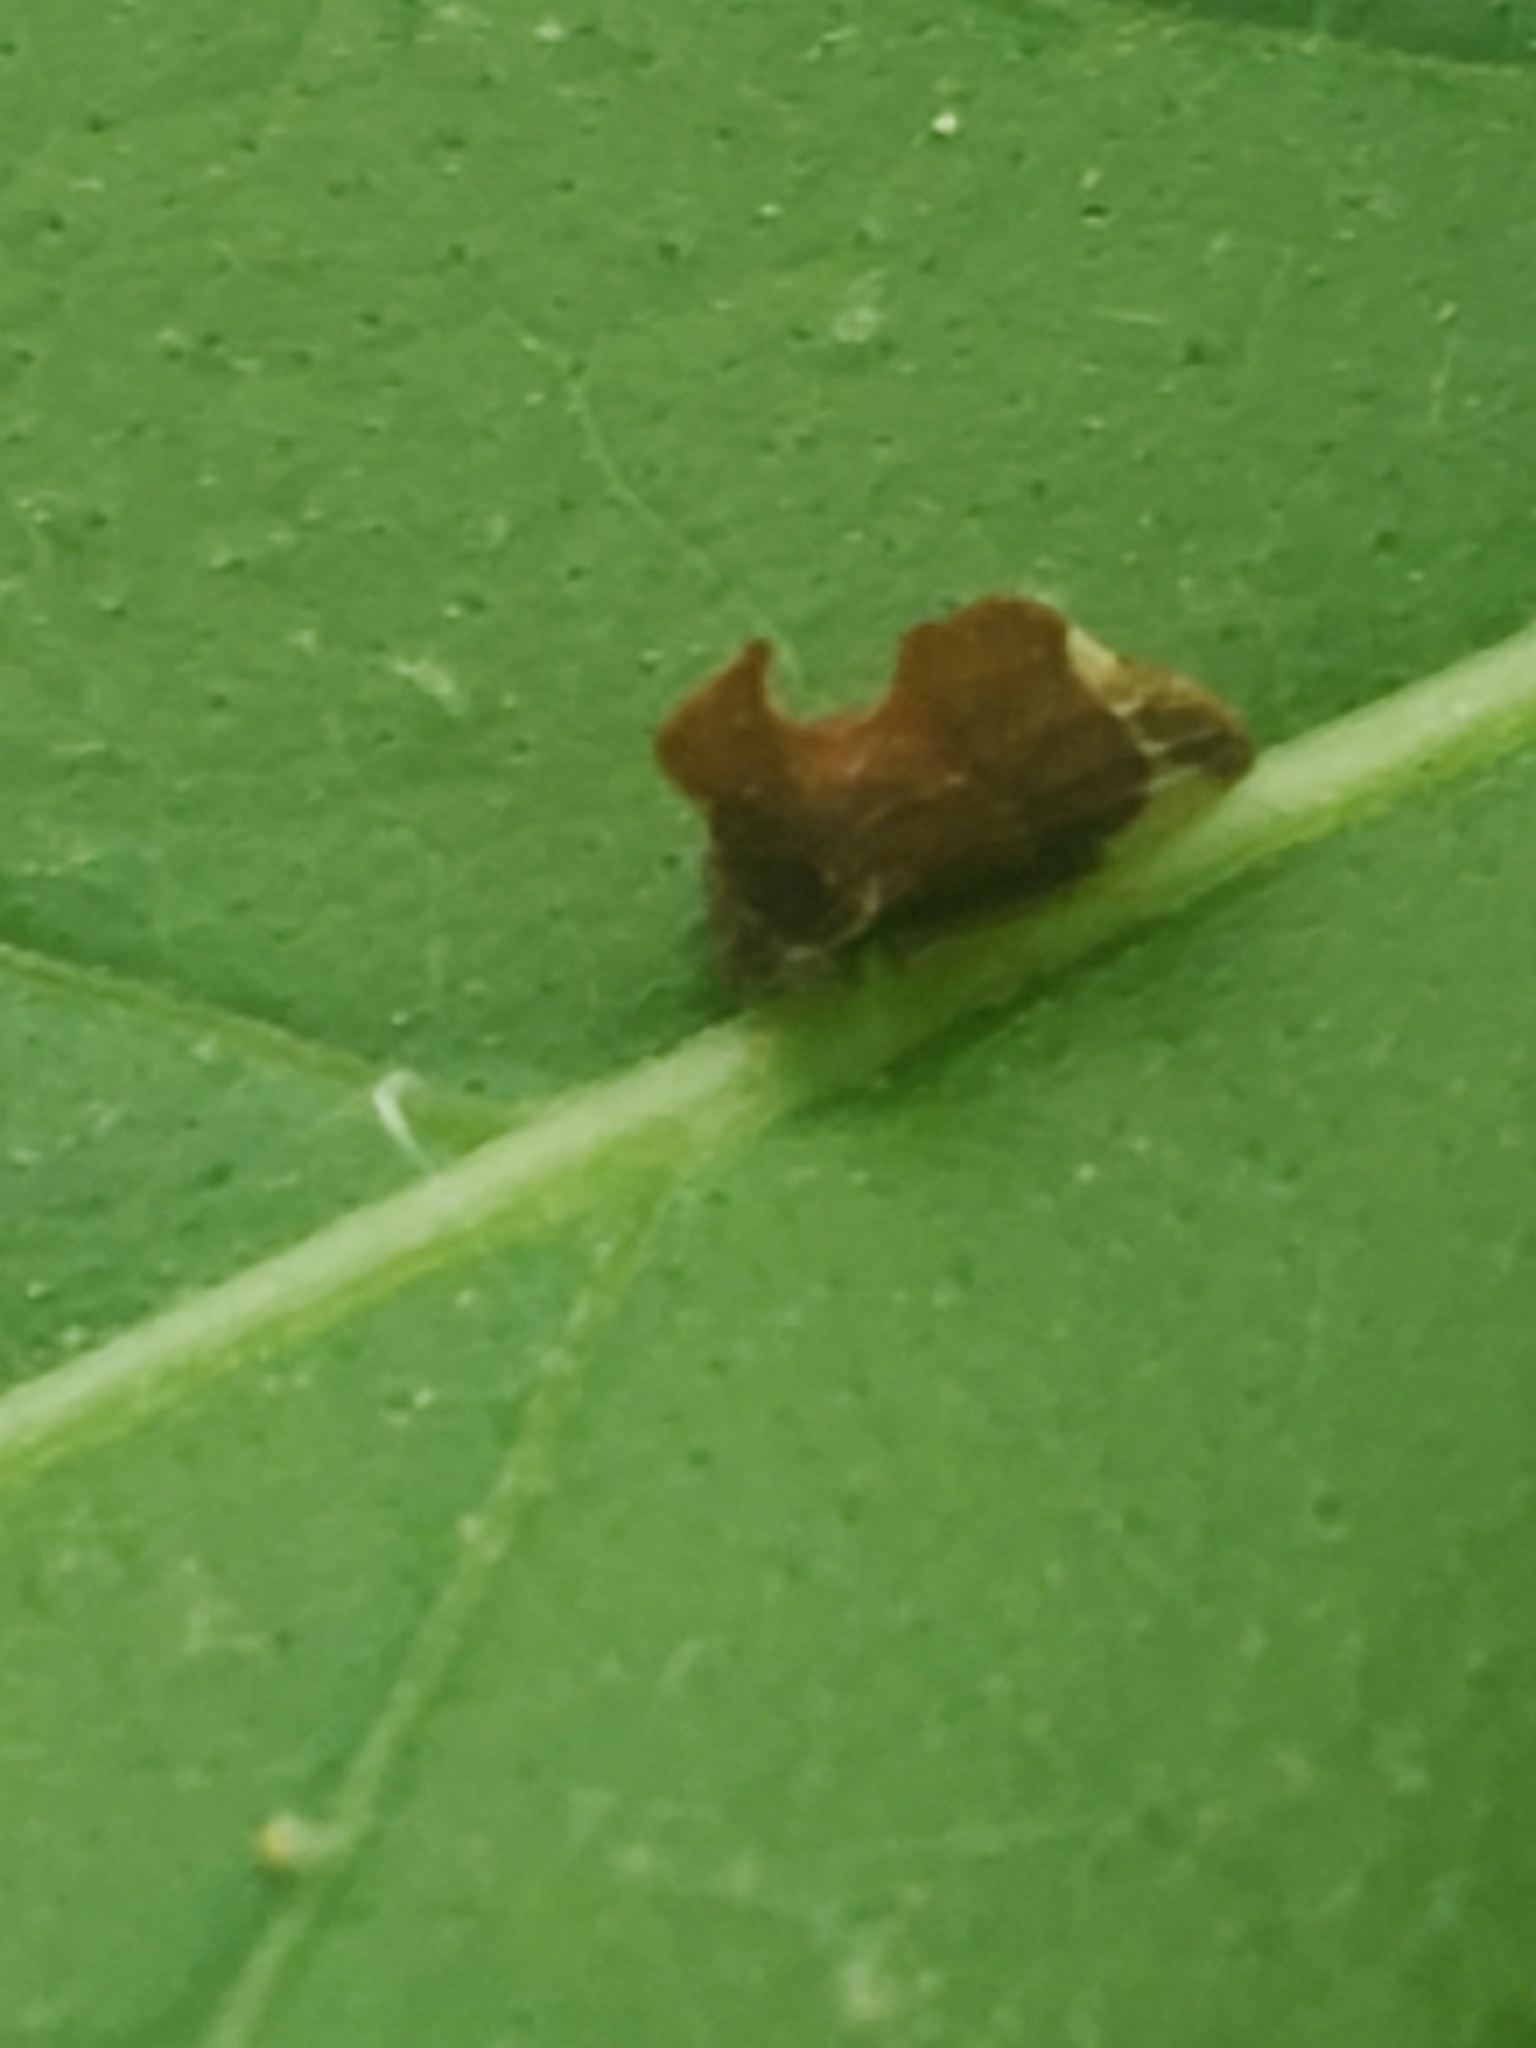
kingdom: Animalia
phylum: Arthropoda
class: Insecta
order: Hemiptera
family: Membracidae
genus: Entylia
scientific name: Entylia carinata
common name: Keeled treehopper
